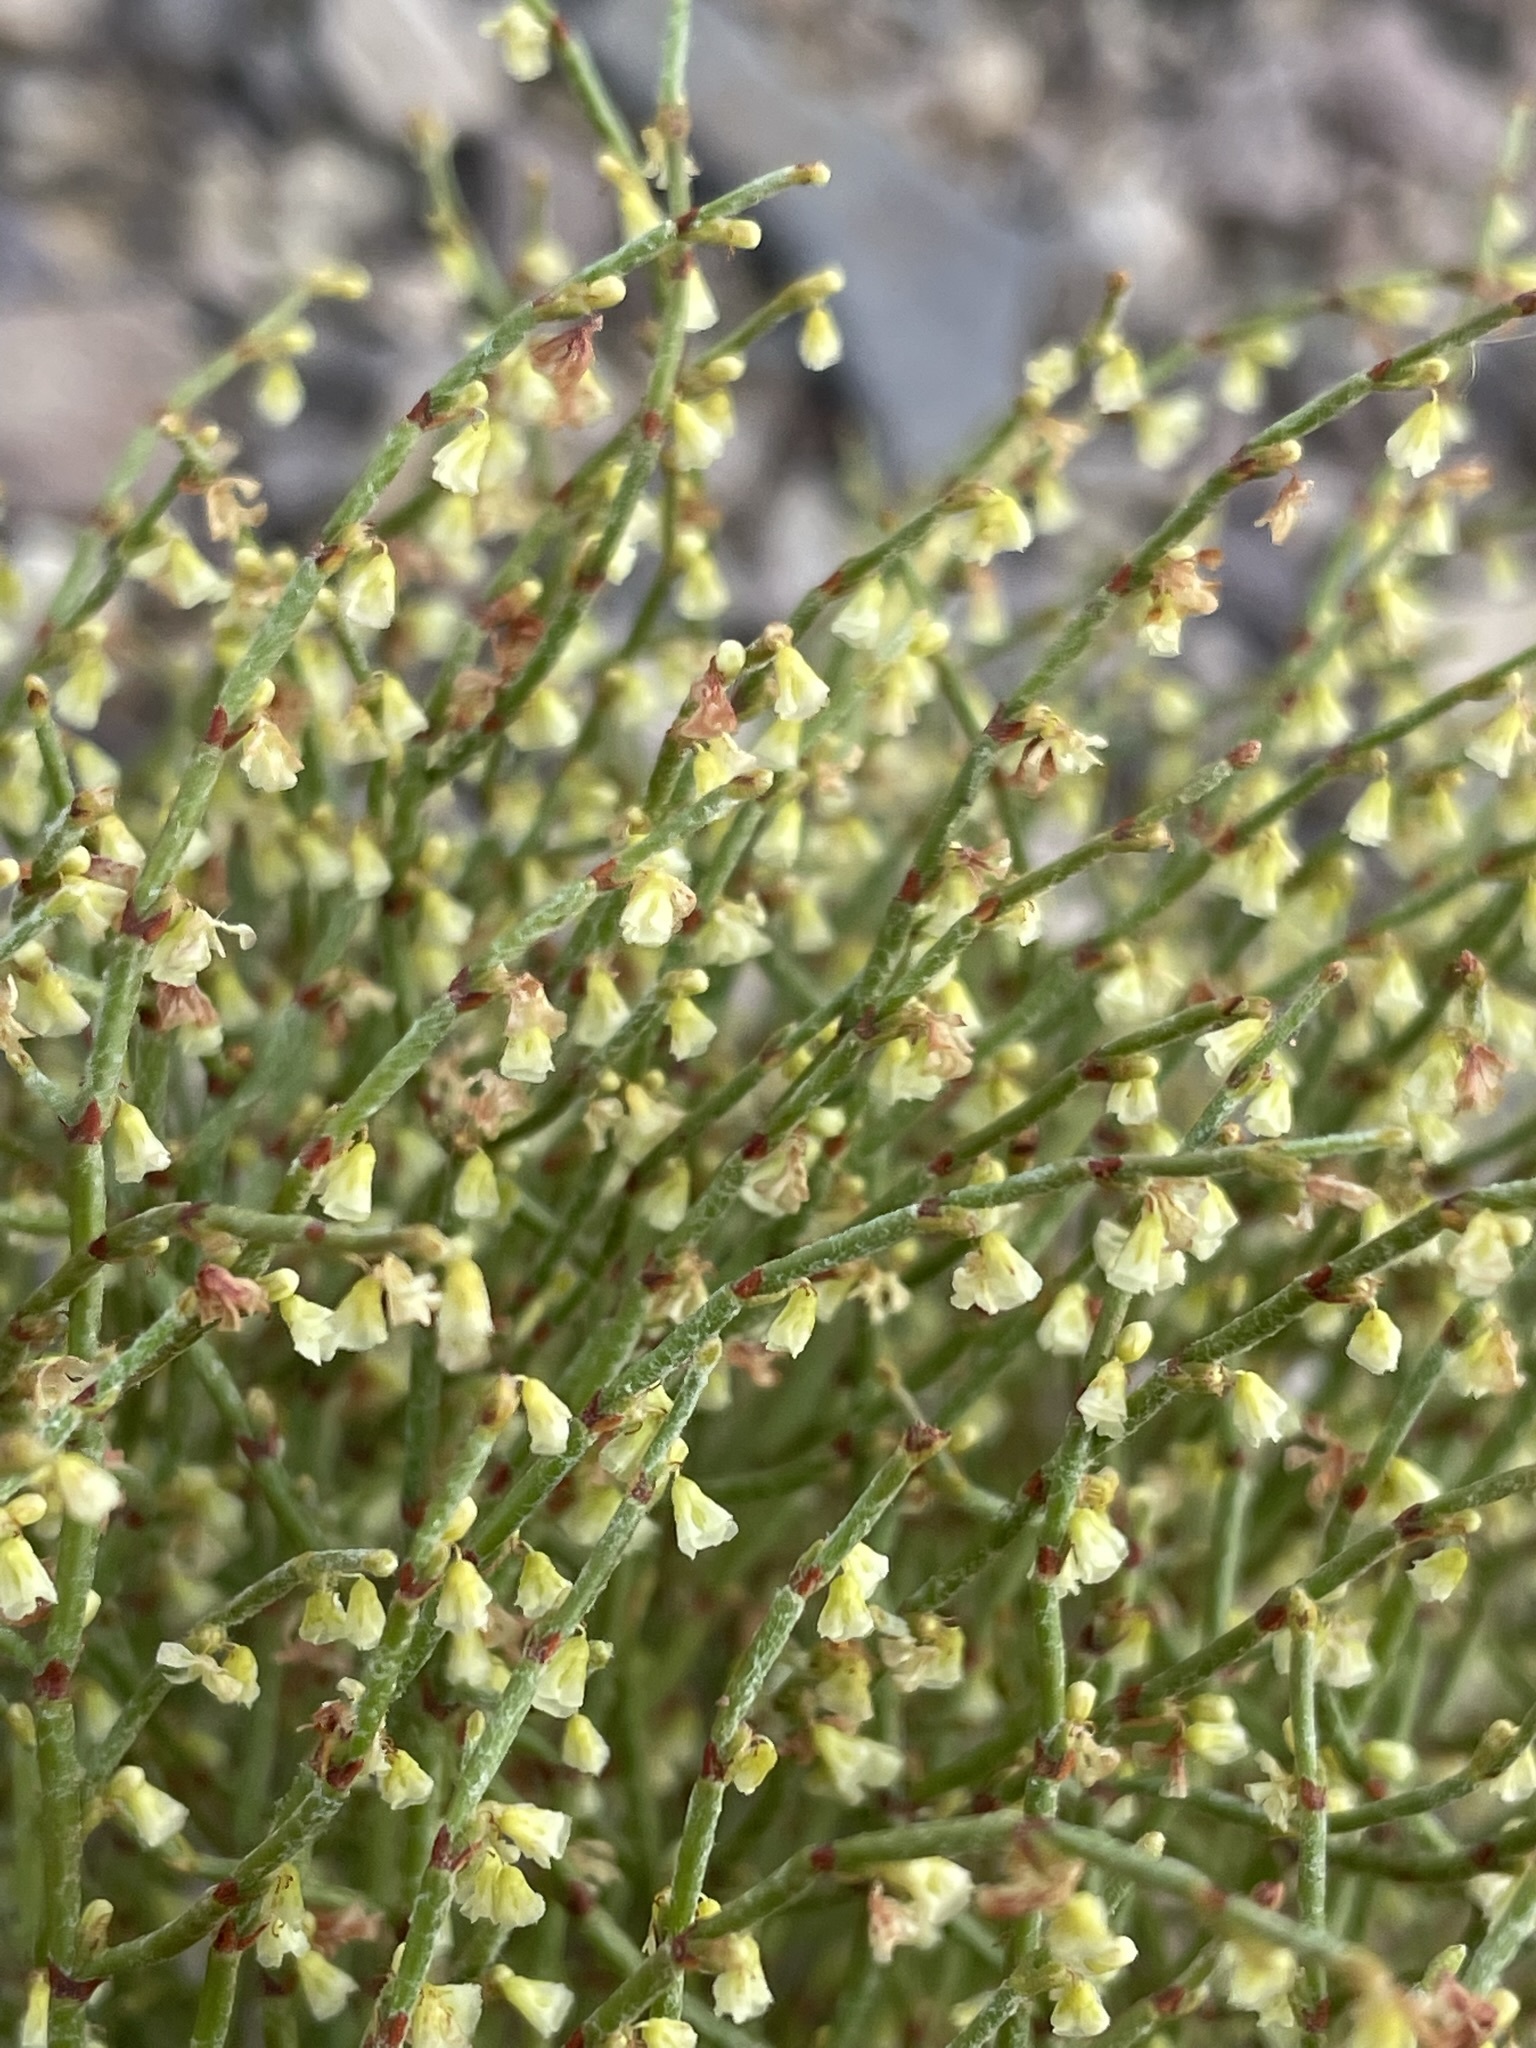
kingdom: Plantae
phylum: Tracheophyta
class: Magnoliopsida
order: Caryophyllales
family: Polygonaceae
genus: Eriogonum
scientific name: Eriogonum nidularium
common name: Bird's-nest wild buckwheat
